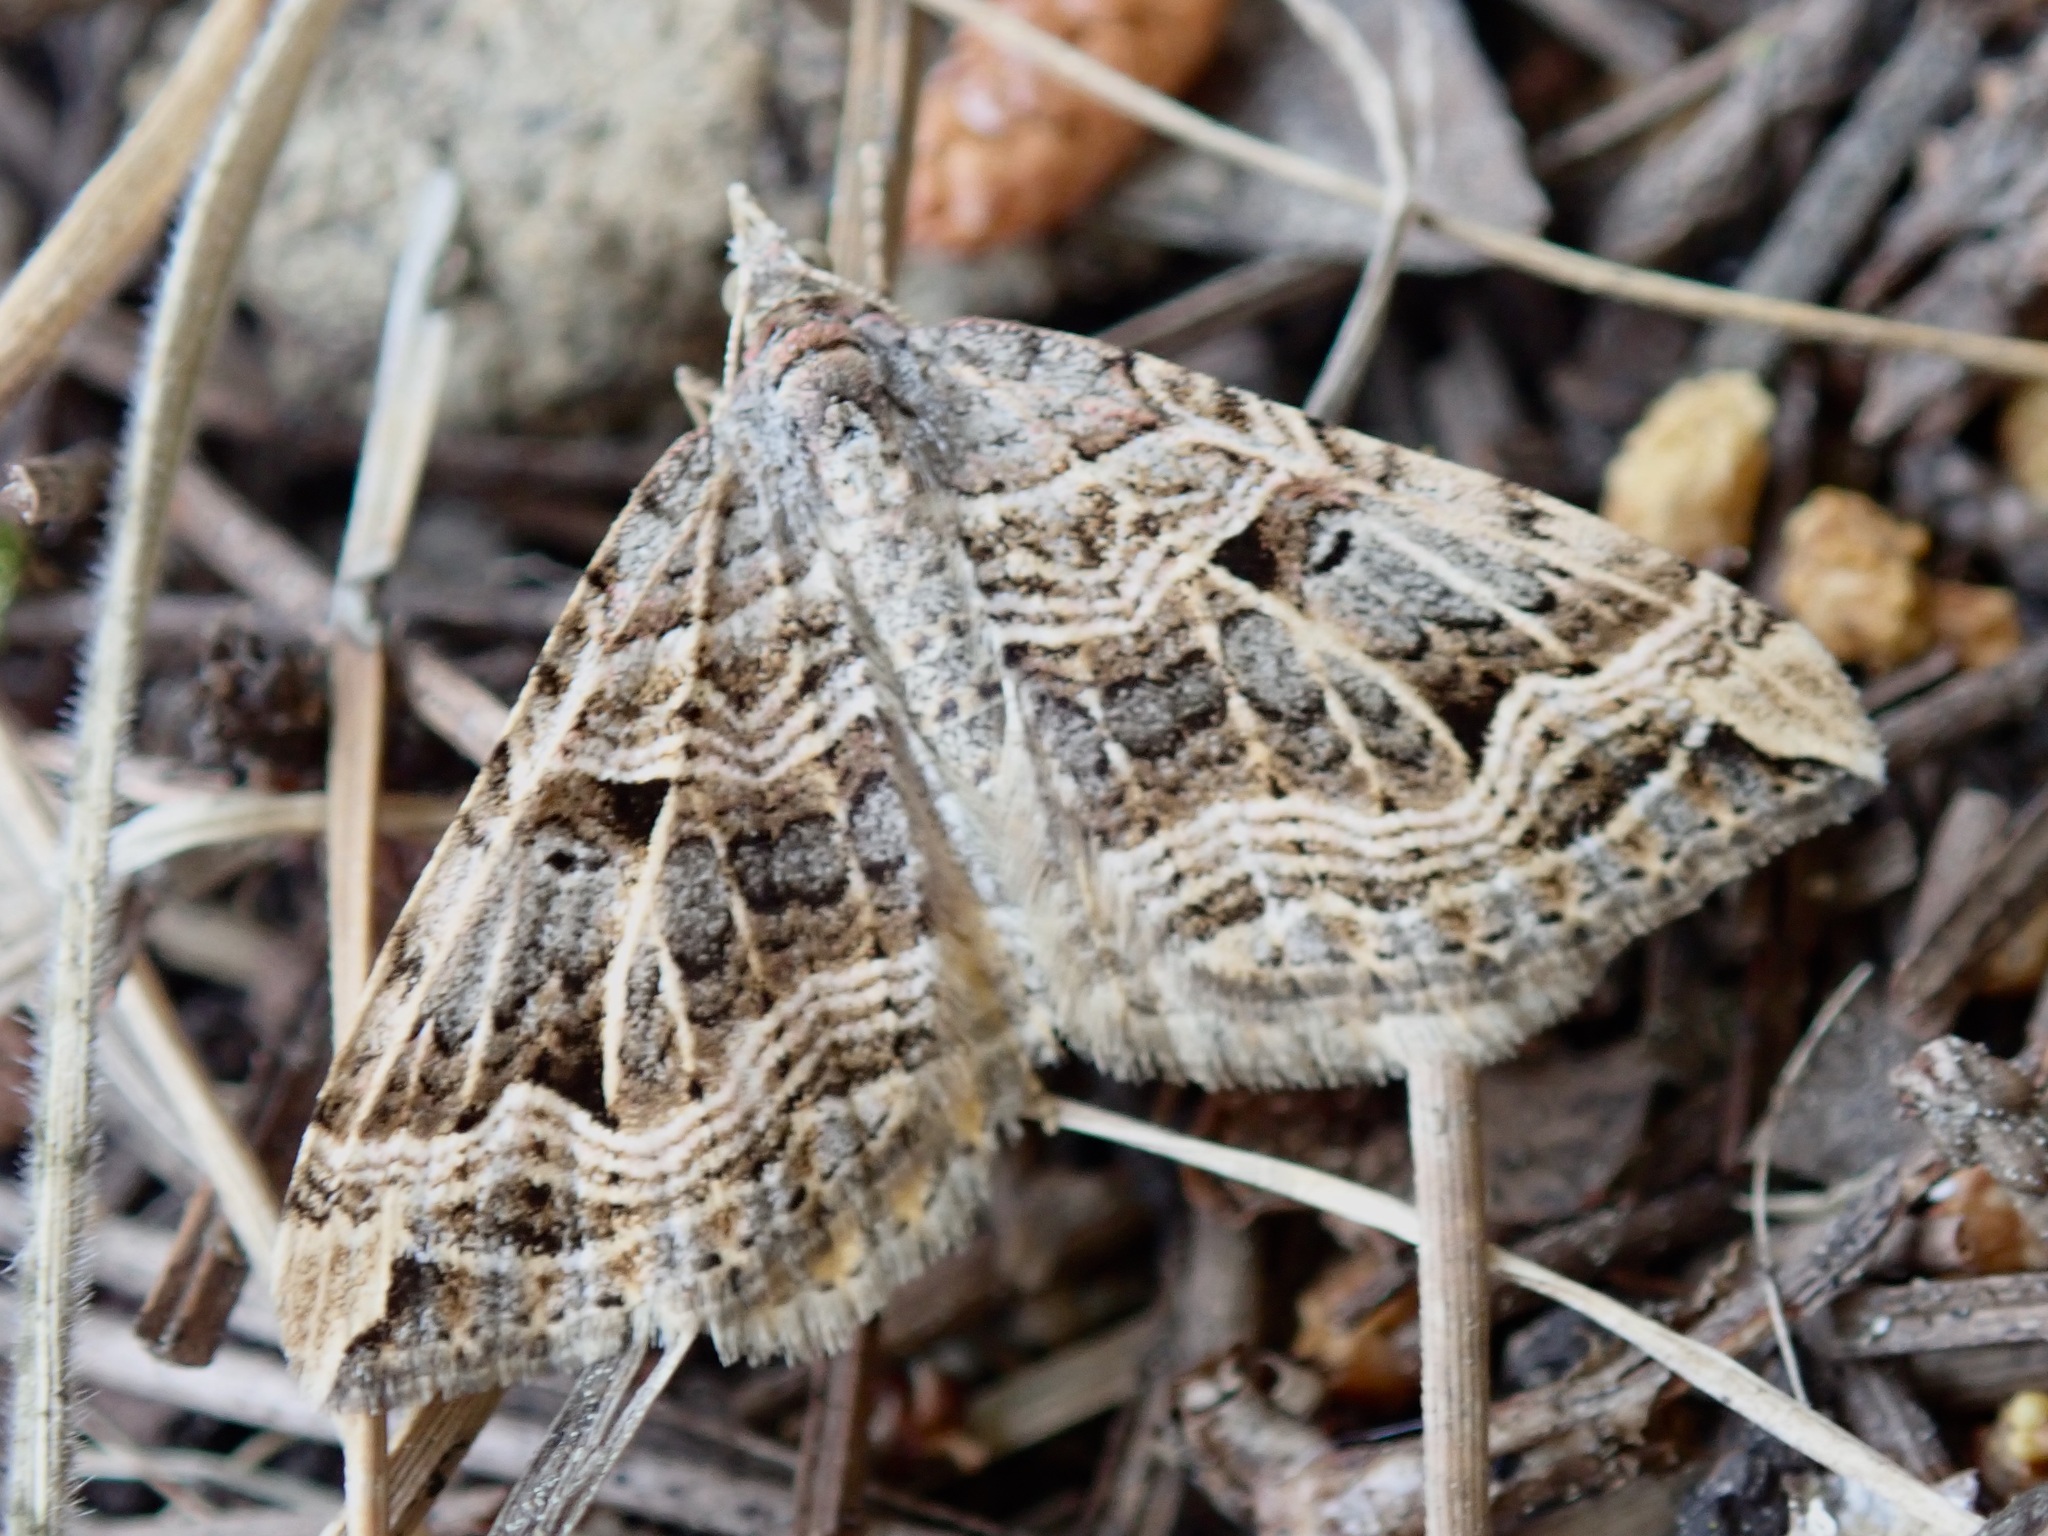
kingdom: Animalia
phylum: Arthropoda
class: Insecta
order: Lepidoptera
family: Geometridae
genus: Xanthorhoe
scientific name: Xanthorhoe semifissata
